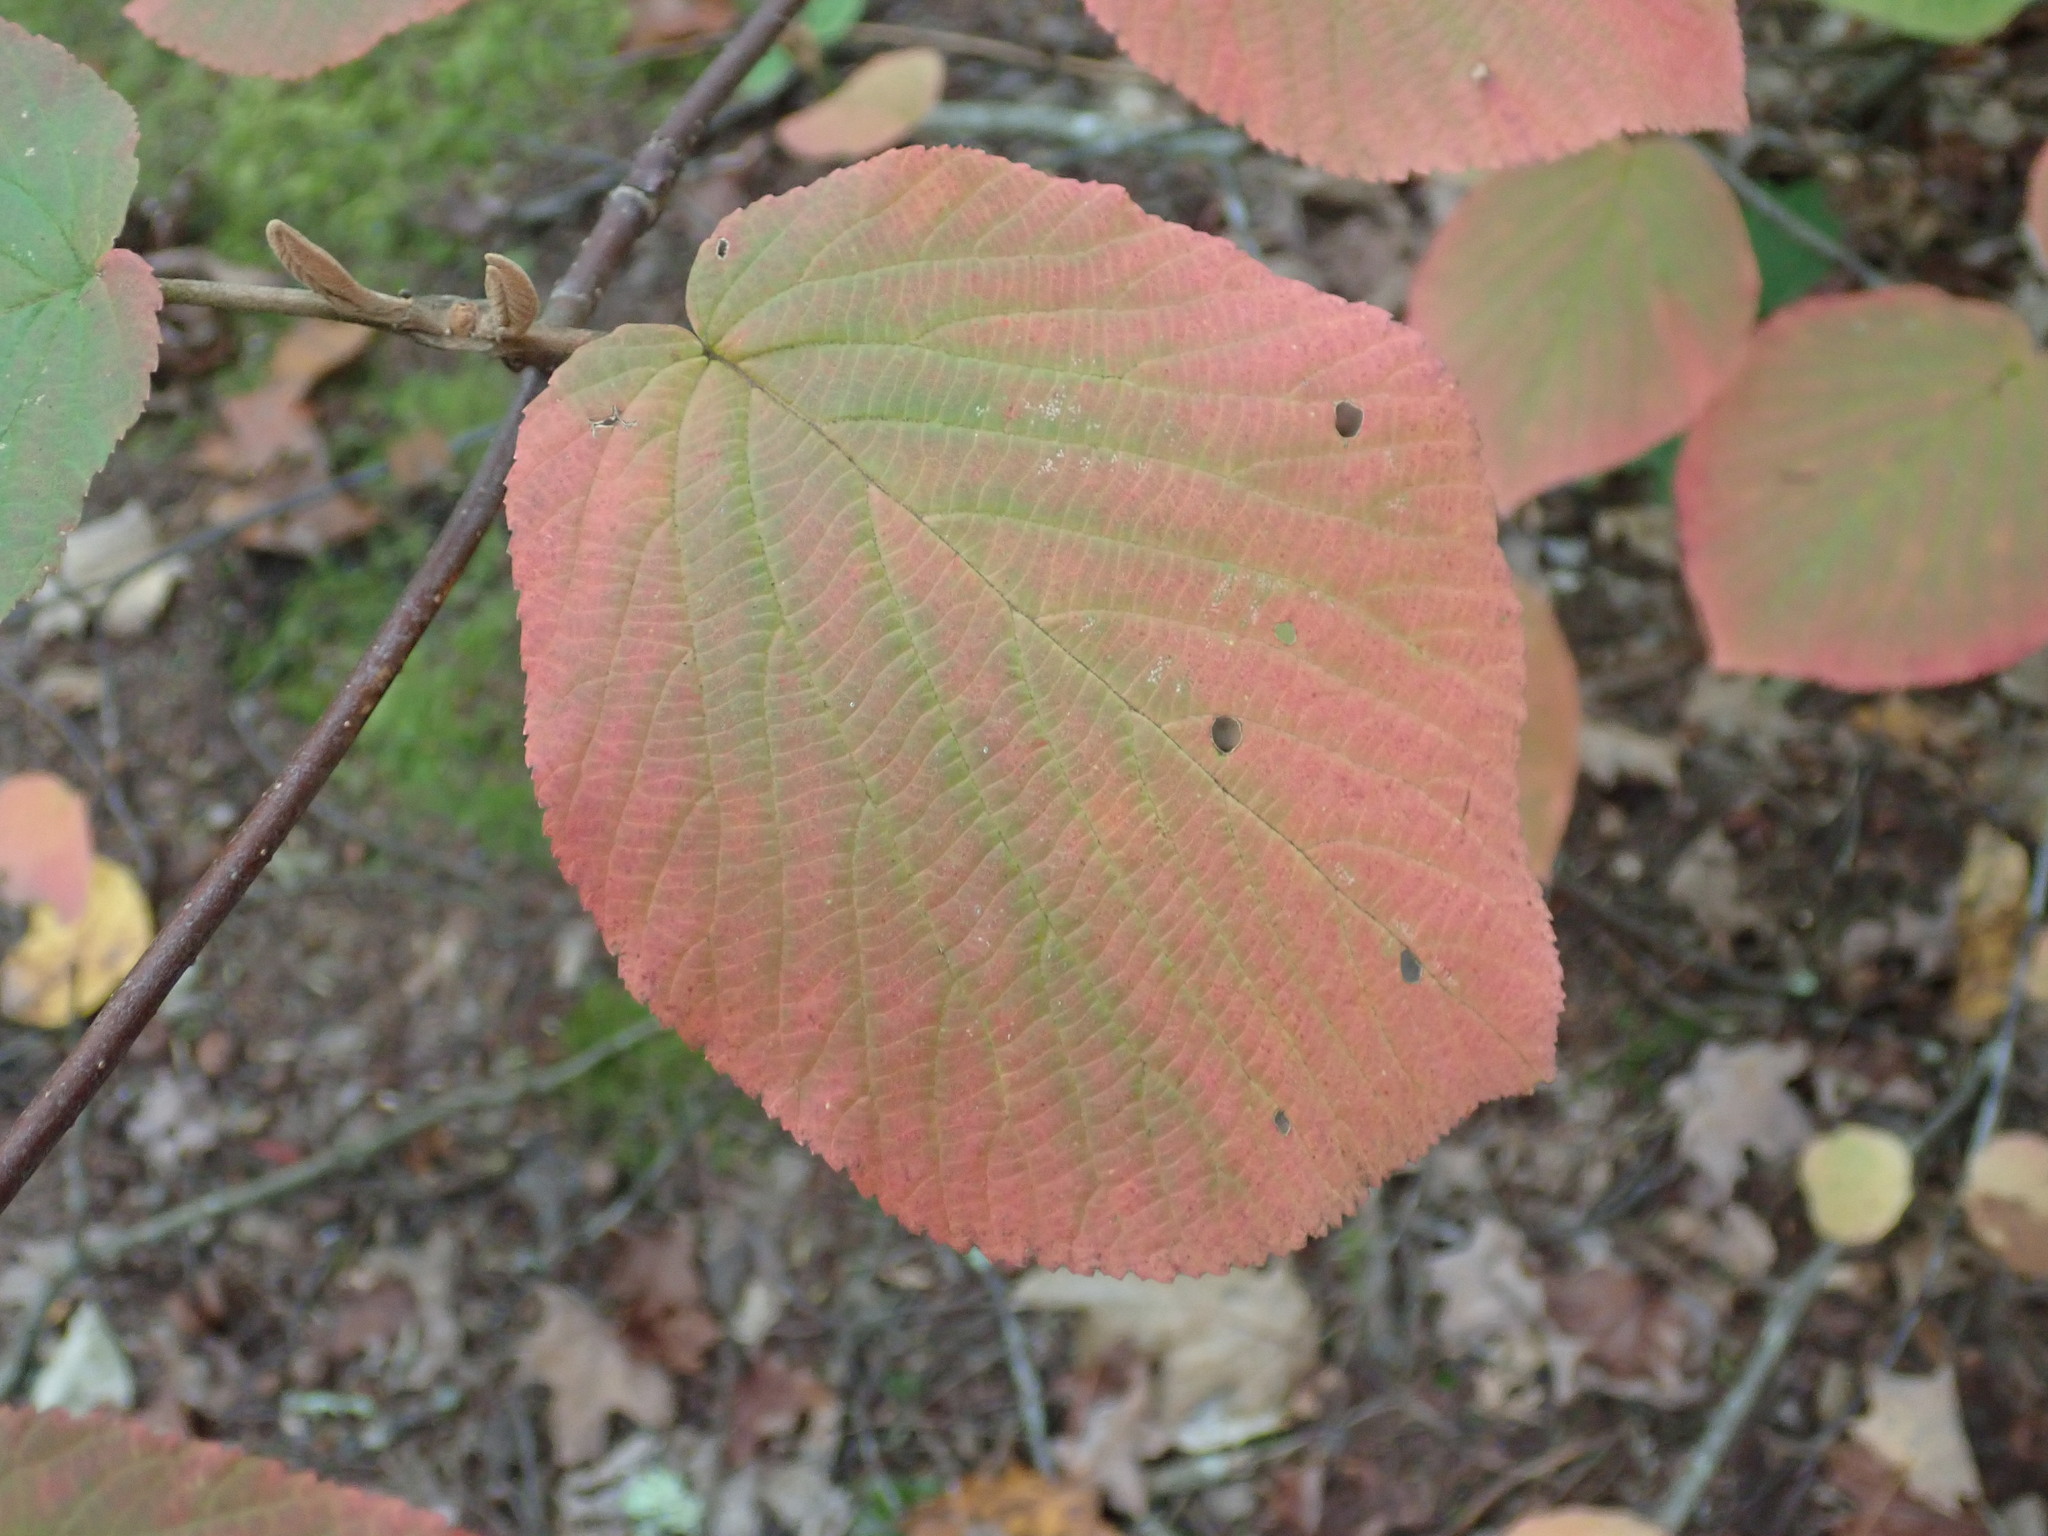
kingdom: Plantae
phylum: Tracheophyta
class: Magnoliopsida
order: Dipsacales
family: Viburnaceae
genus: Viburnum
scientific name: Viburnum lantanoides
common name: Hobblebush
